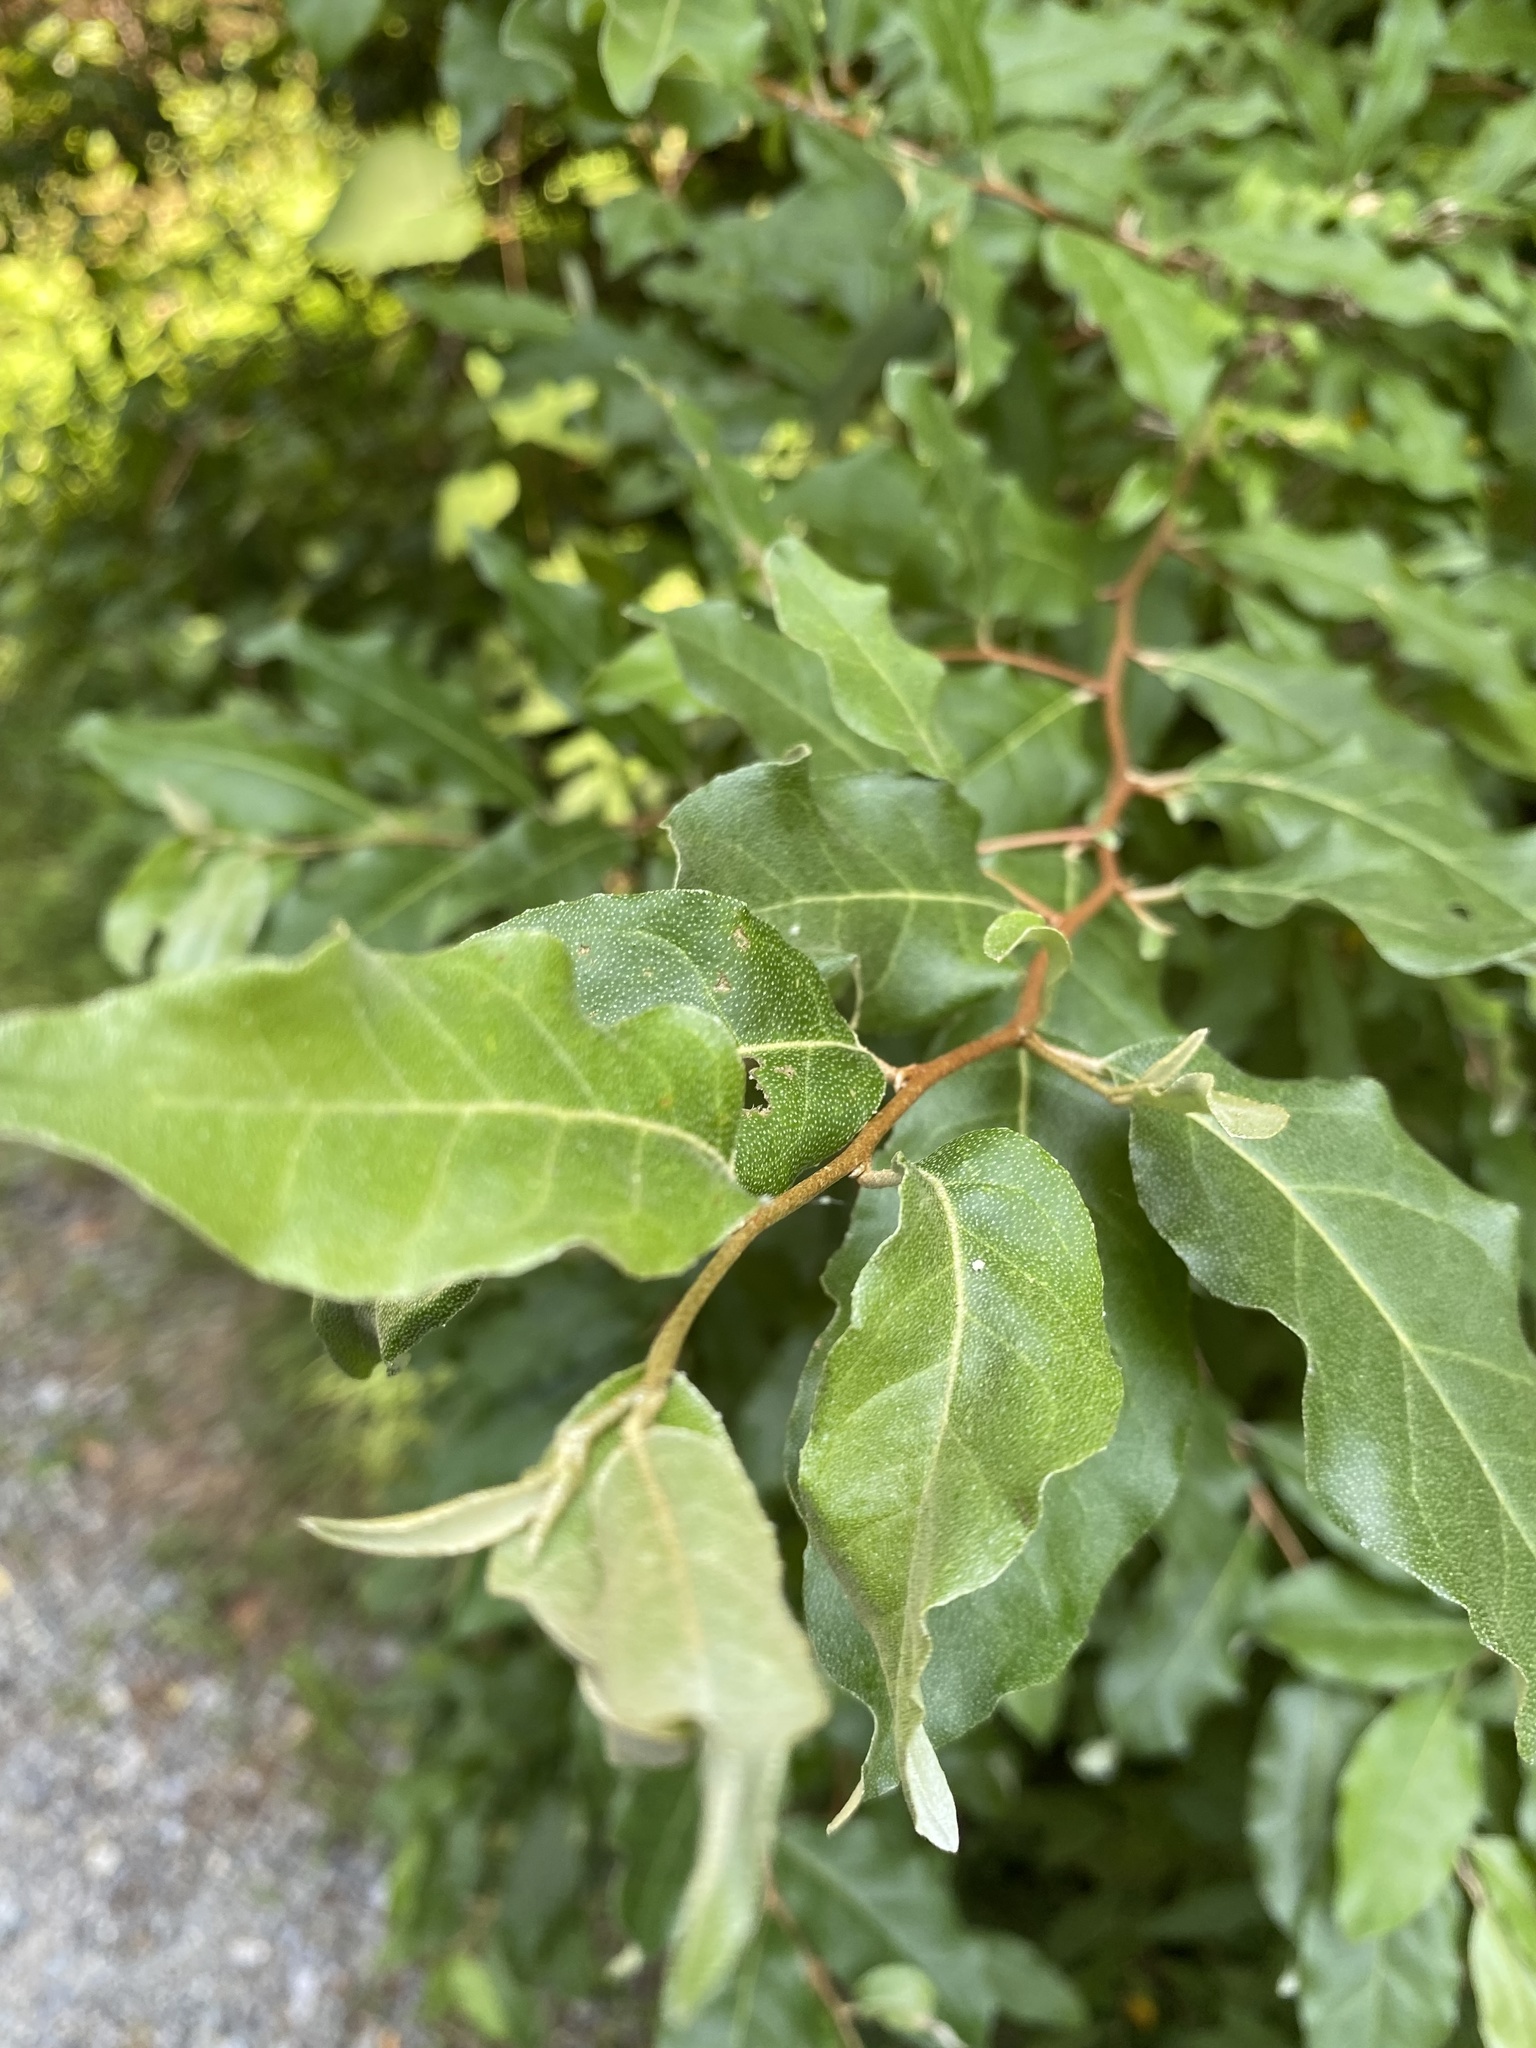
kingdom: Plantae
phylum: Tracheophyta
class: Magnoliopsida
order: Rosales
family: Elaeagnaceae
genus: Elaeagnus
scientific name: Elaeagnus umbellata
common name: Autumn olive
